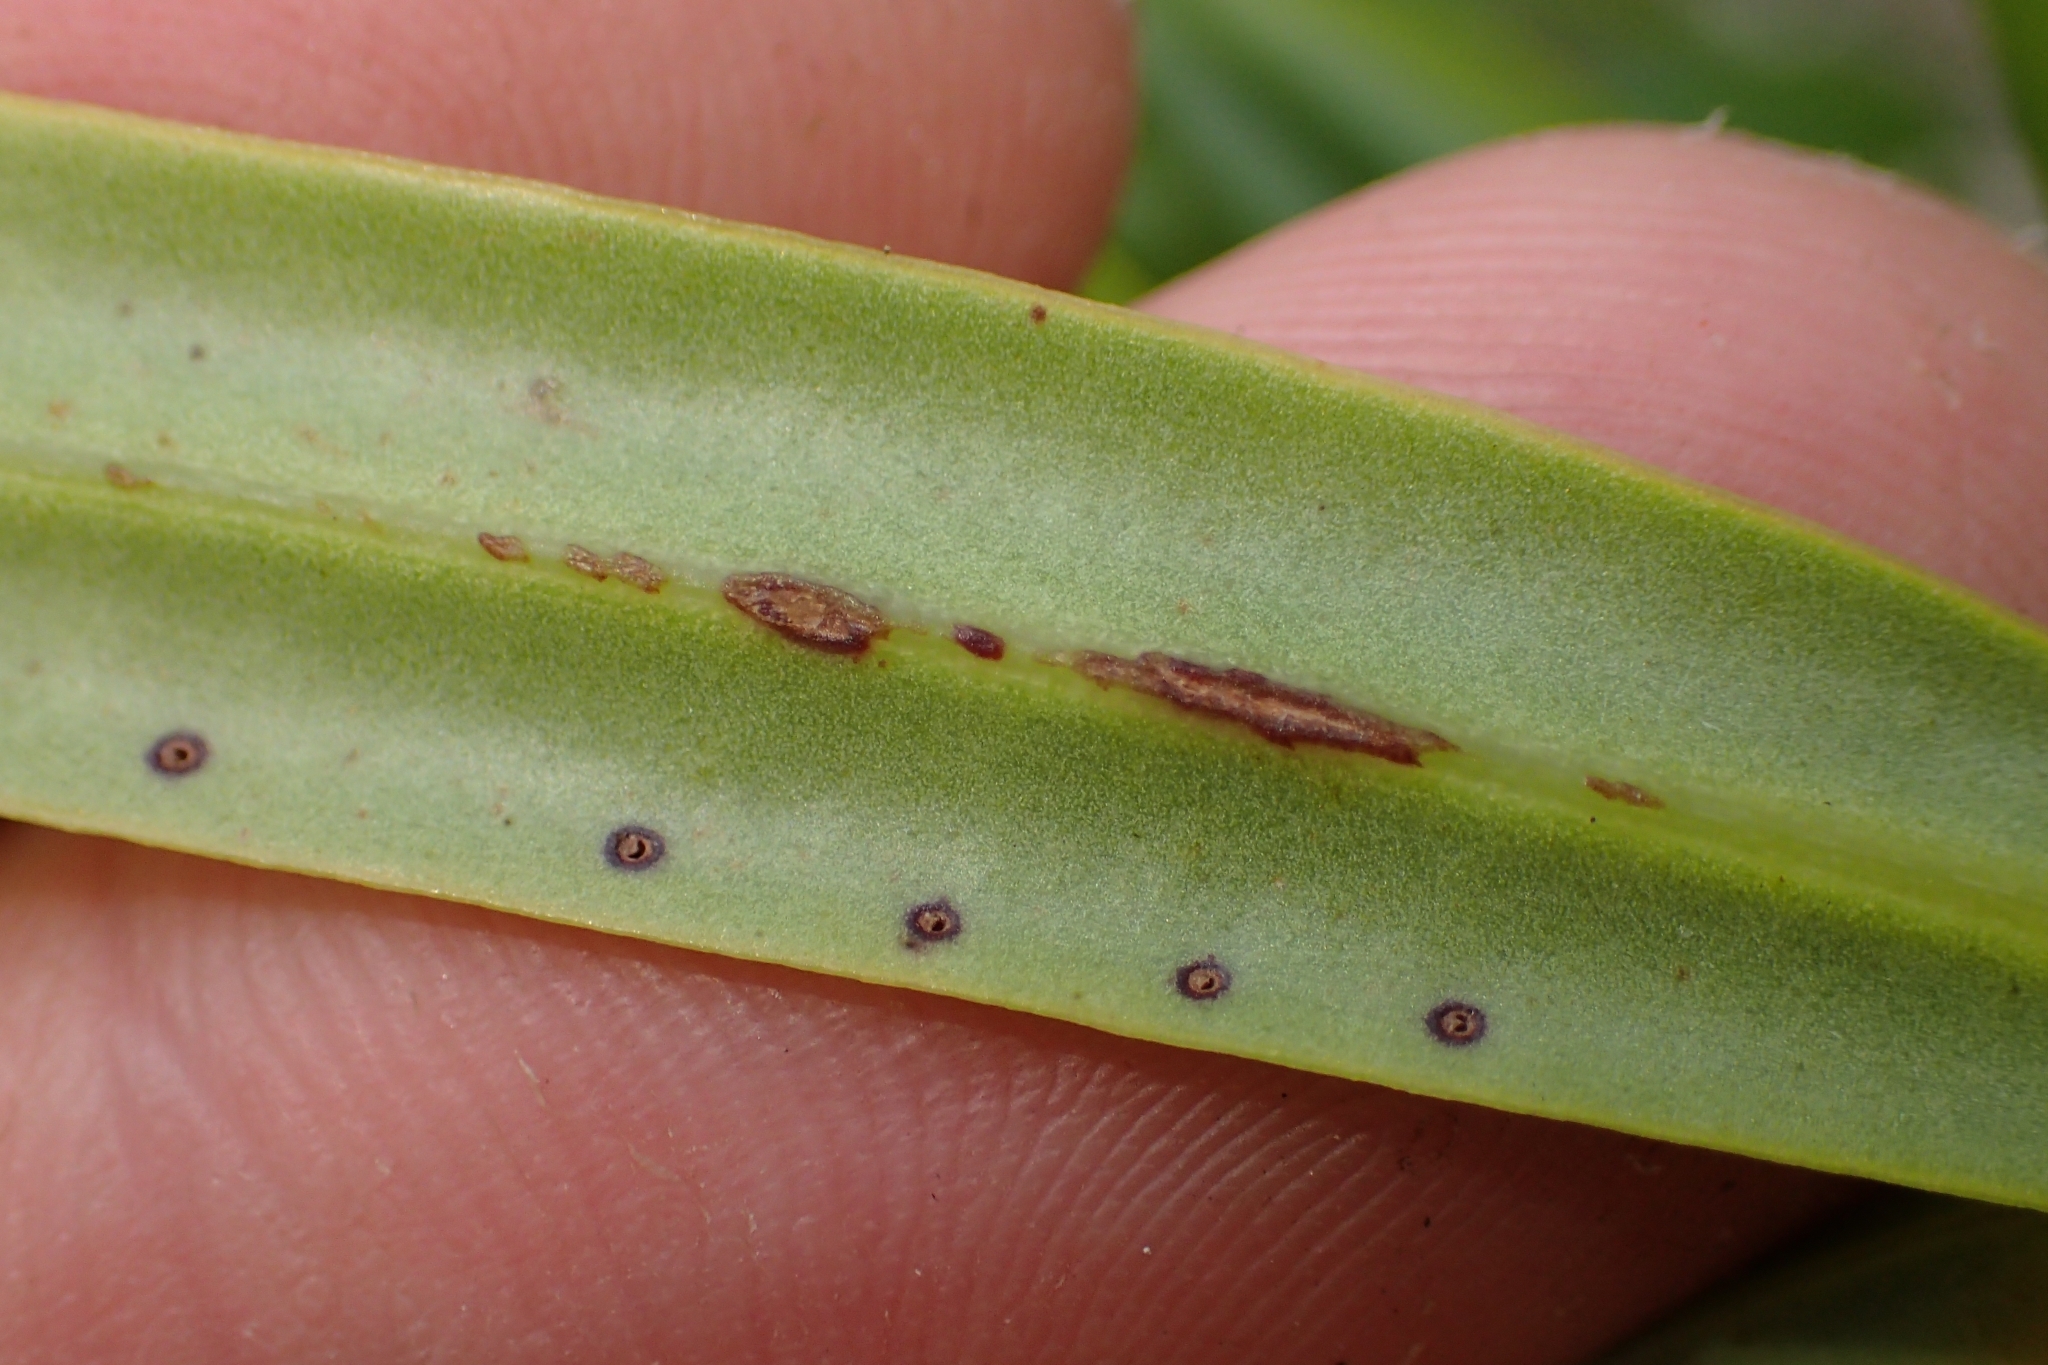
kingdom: Plantae
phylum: Tracheophyta
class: Magnoliopsida
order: Lamiales
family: Plantaginaceae
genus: Veronica
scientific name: Veronica macrocarpa
